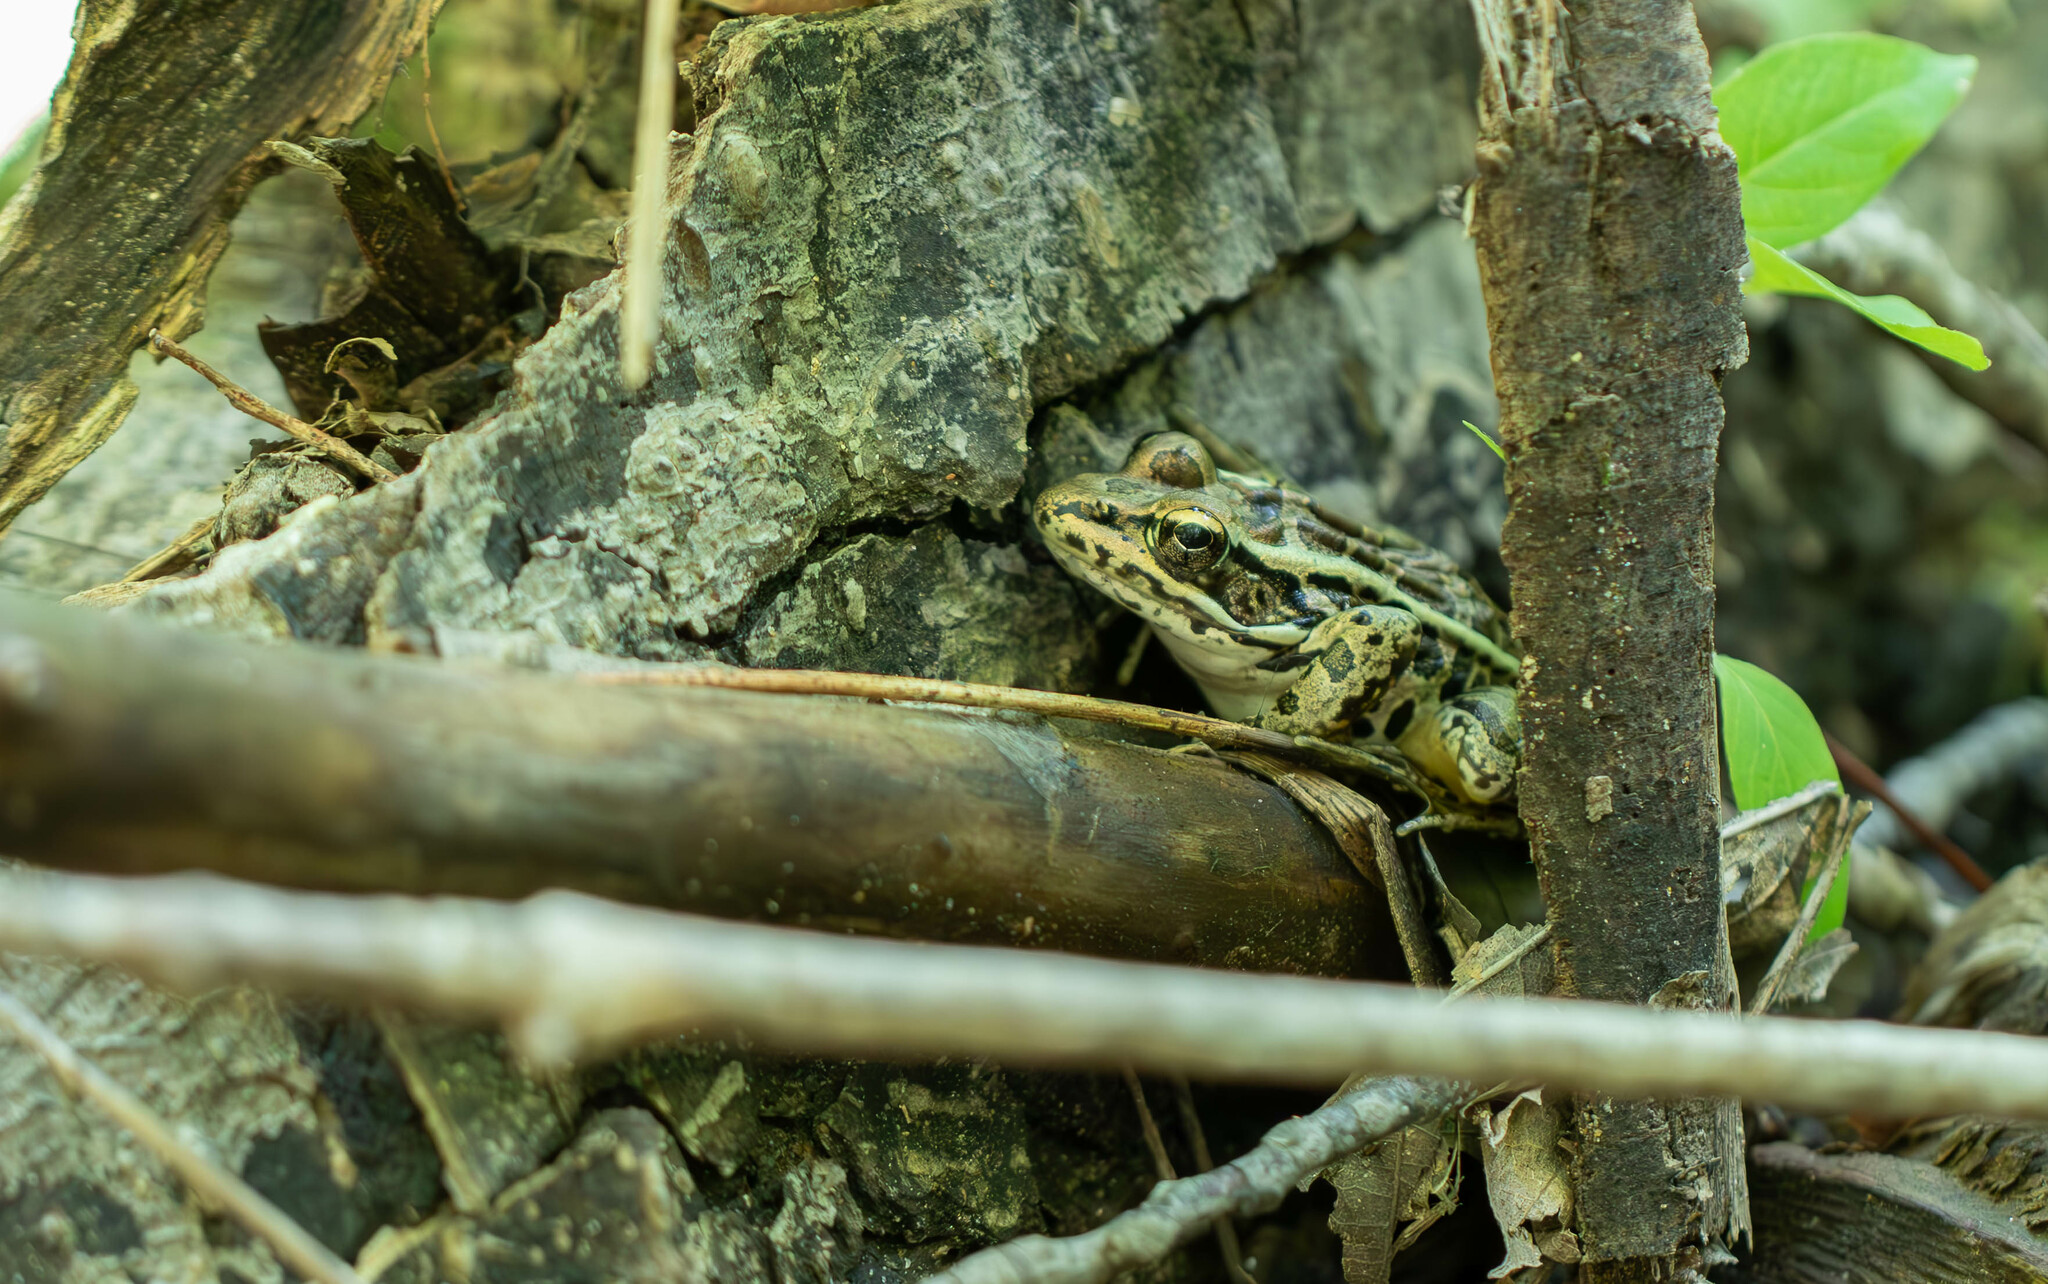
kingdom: Animalia
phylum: Chordata
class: Amphibia
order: Anura
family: Ranidae
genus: Lithobates
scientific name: Lithobates palustris
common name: Pickerel frog
